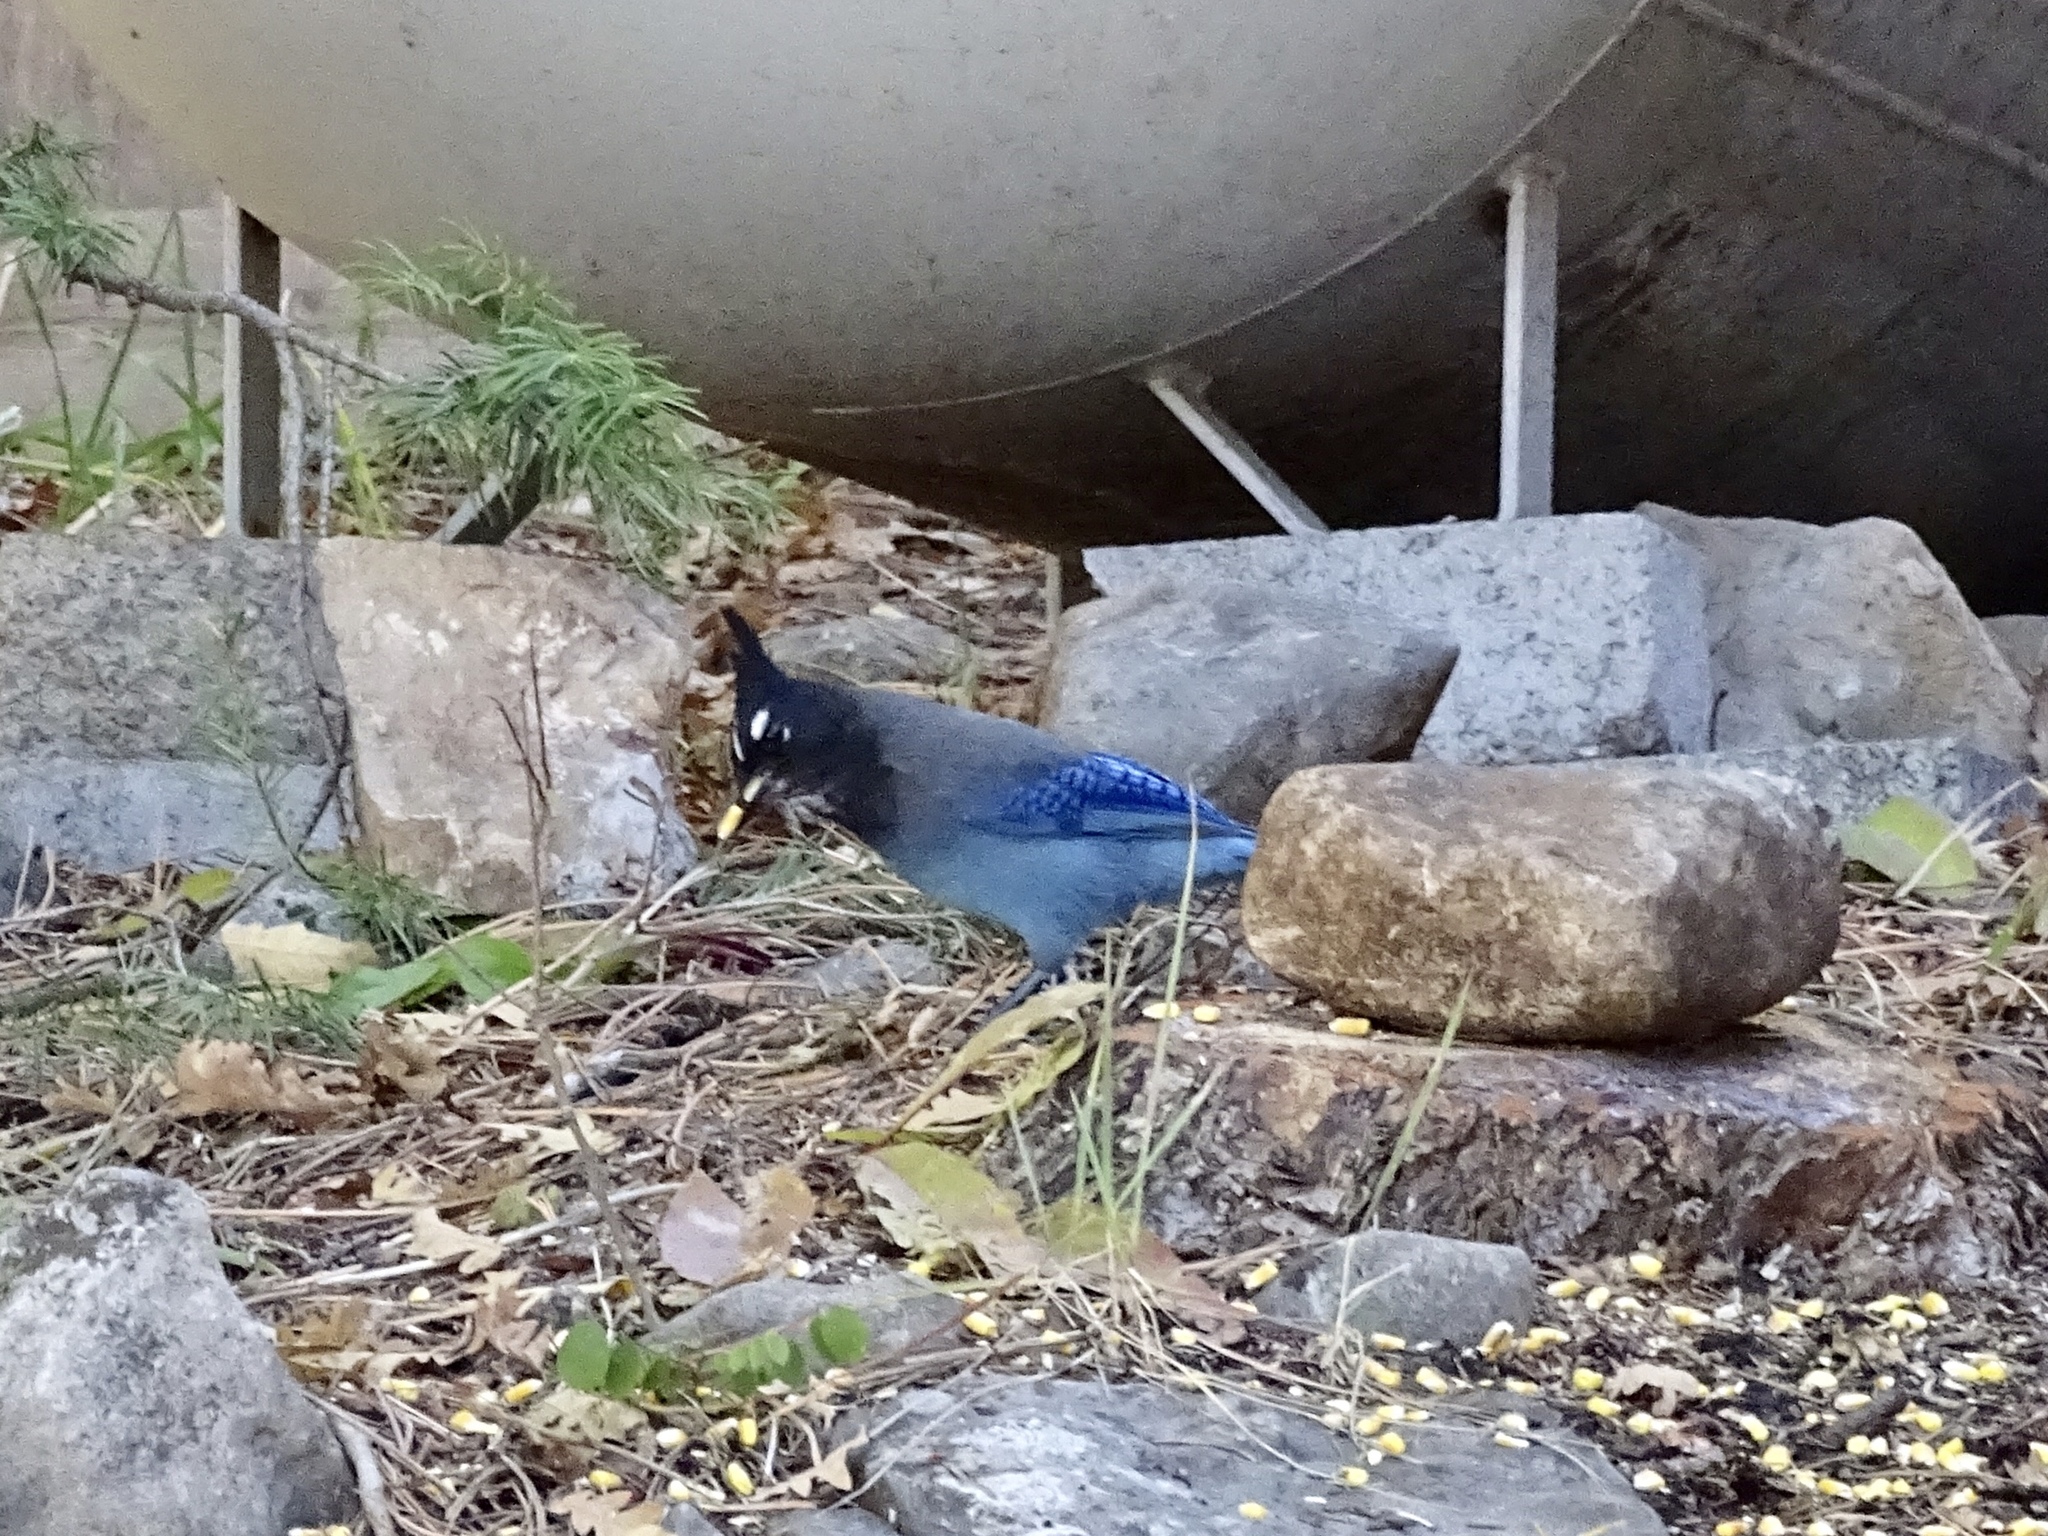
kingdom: Animalia
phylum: Chordata
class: Aves
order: Passeriformes
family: Corvidae
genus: Cyanocitta
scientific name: Cyanocitta stelleri
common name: Steller's jay
